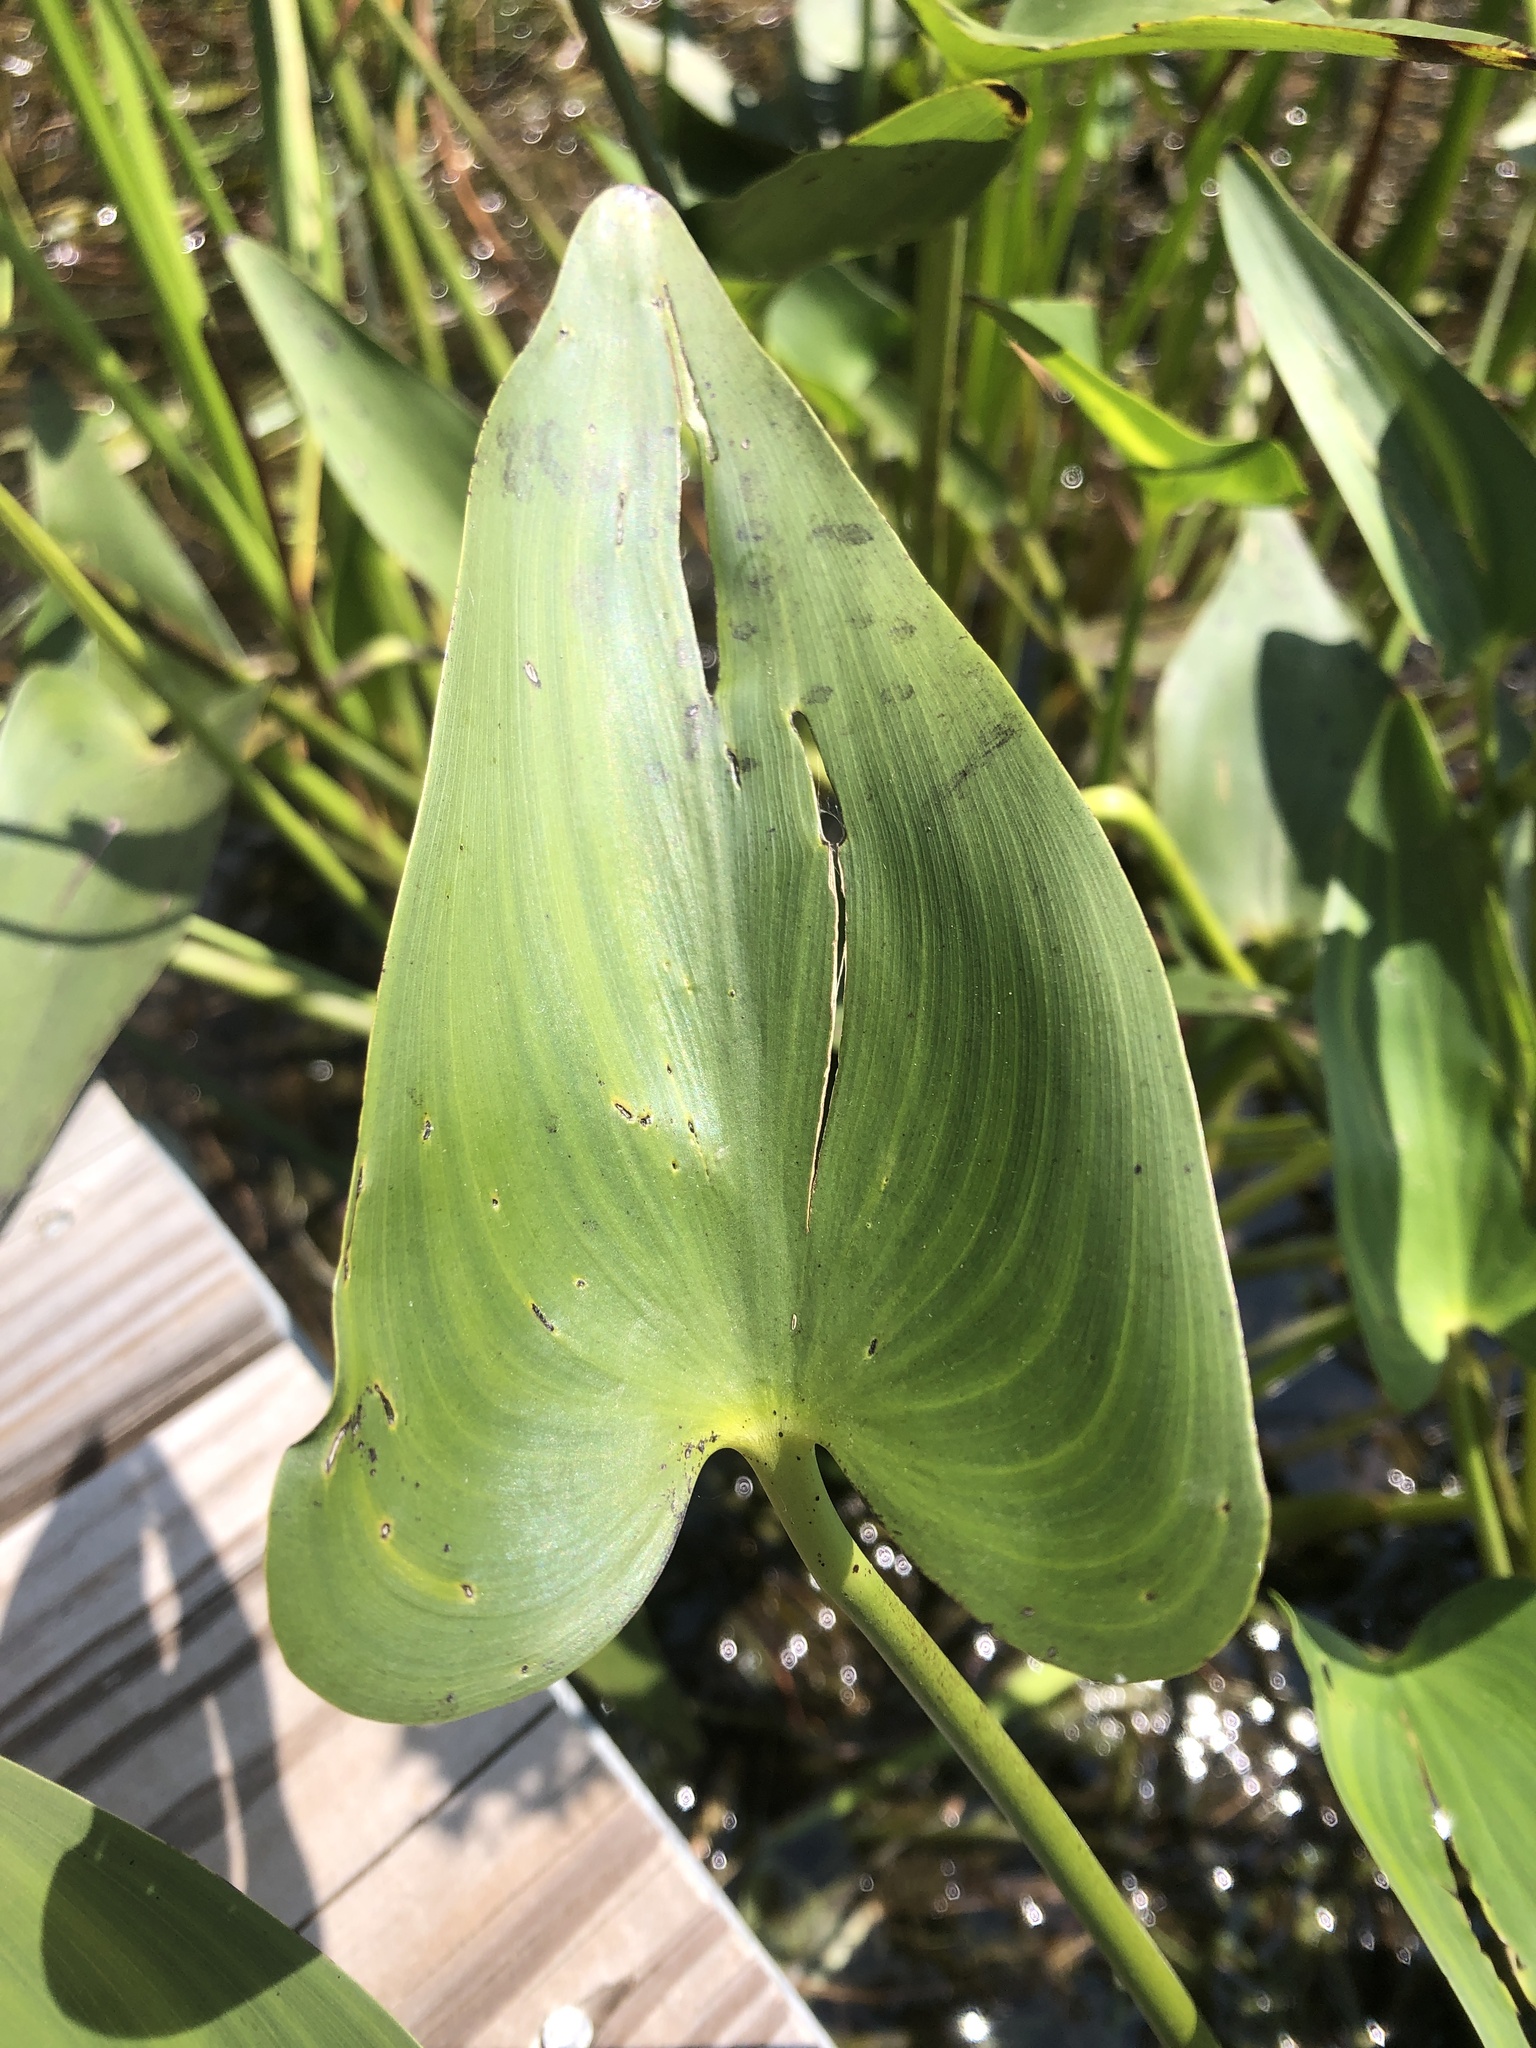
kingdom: Plantae
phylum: Tracheophyta
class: Liliopsida
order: Commelinales
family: Pontederiaceae
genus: Pontederia
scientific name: Pontederia cordata
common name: Pickerelweed
